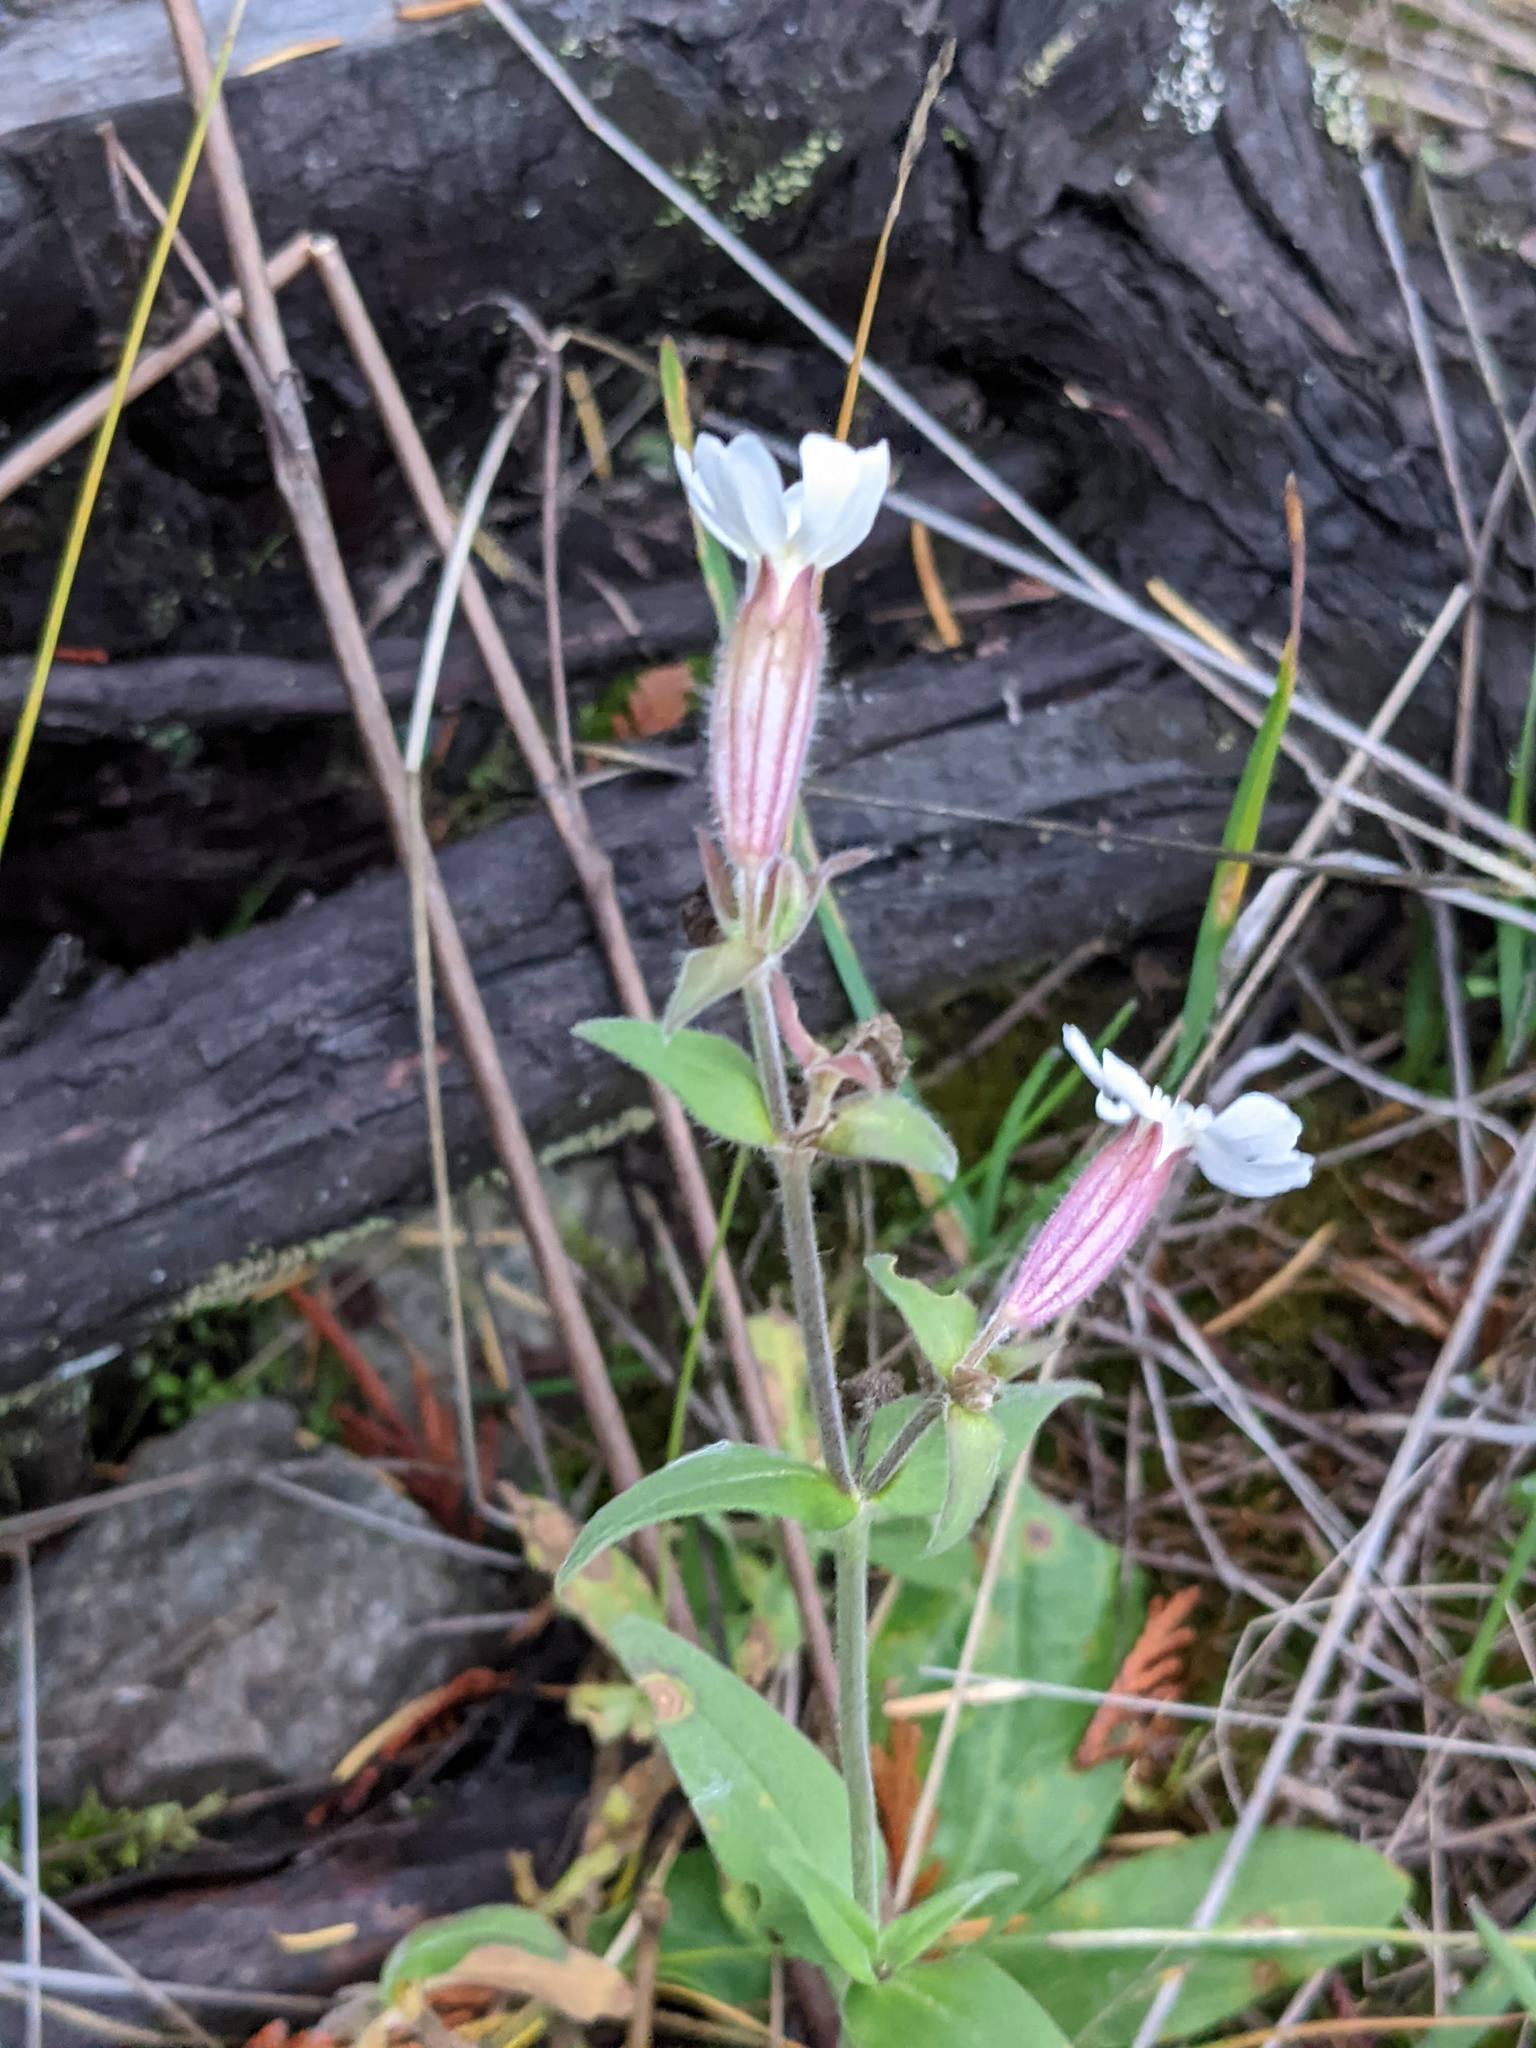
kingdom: Plantae
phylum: Tracheophyta
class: Magnoliopsida
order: Caryophyllales
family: Caryophyllaceae
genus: Silene
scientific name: Silene latifolia
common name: White campion
